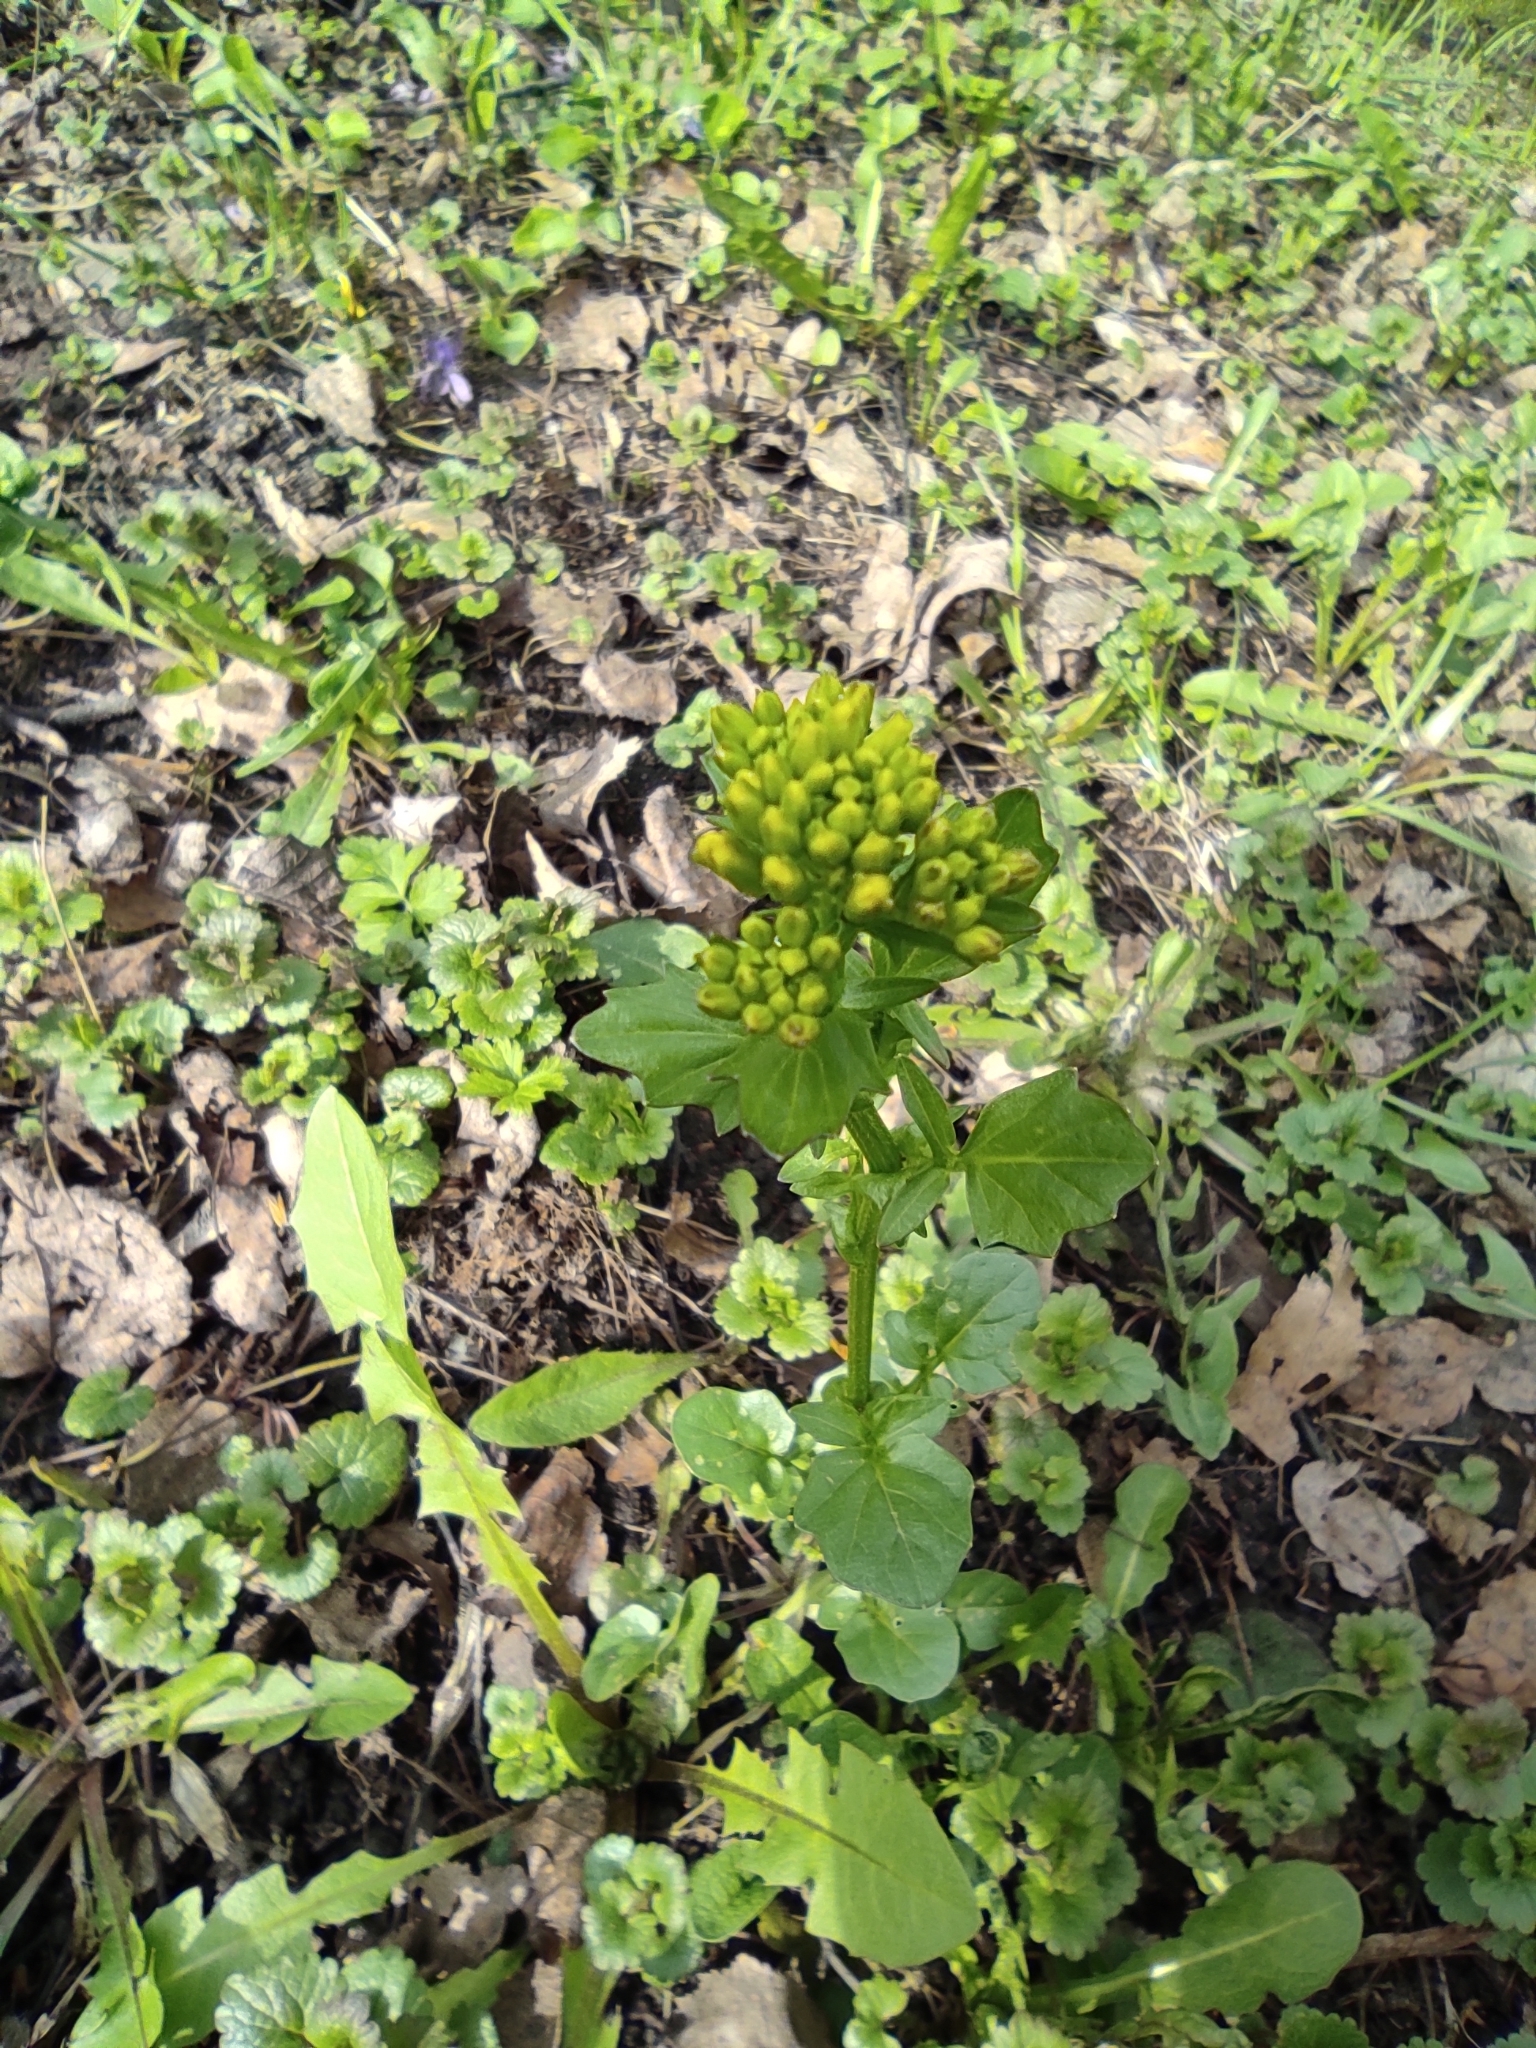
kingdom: Plantae
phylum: Tracheophyta
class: Magnoliopsida
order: Brassicales
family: Brassicaceae
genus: Barbarea
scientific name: Barbarea vulgaris
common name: Cressy-greens
